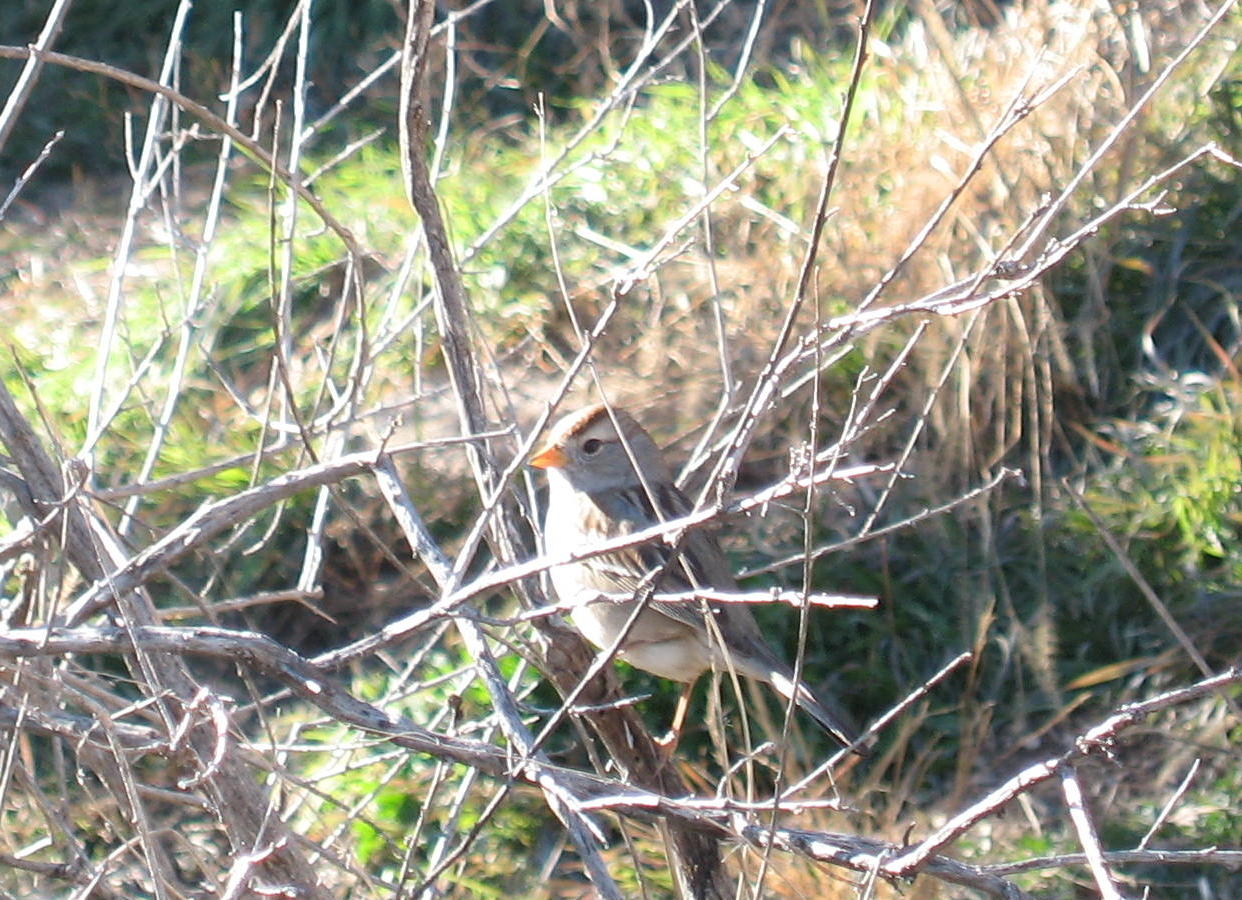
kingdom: Animalia
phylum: Chordata
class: Aves
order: Passeriformes
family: Passerellidae
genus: Zonotrichia
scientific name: Zonotrichia leucophrys
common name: White-crowned sparrow
